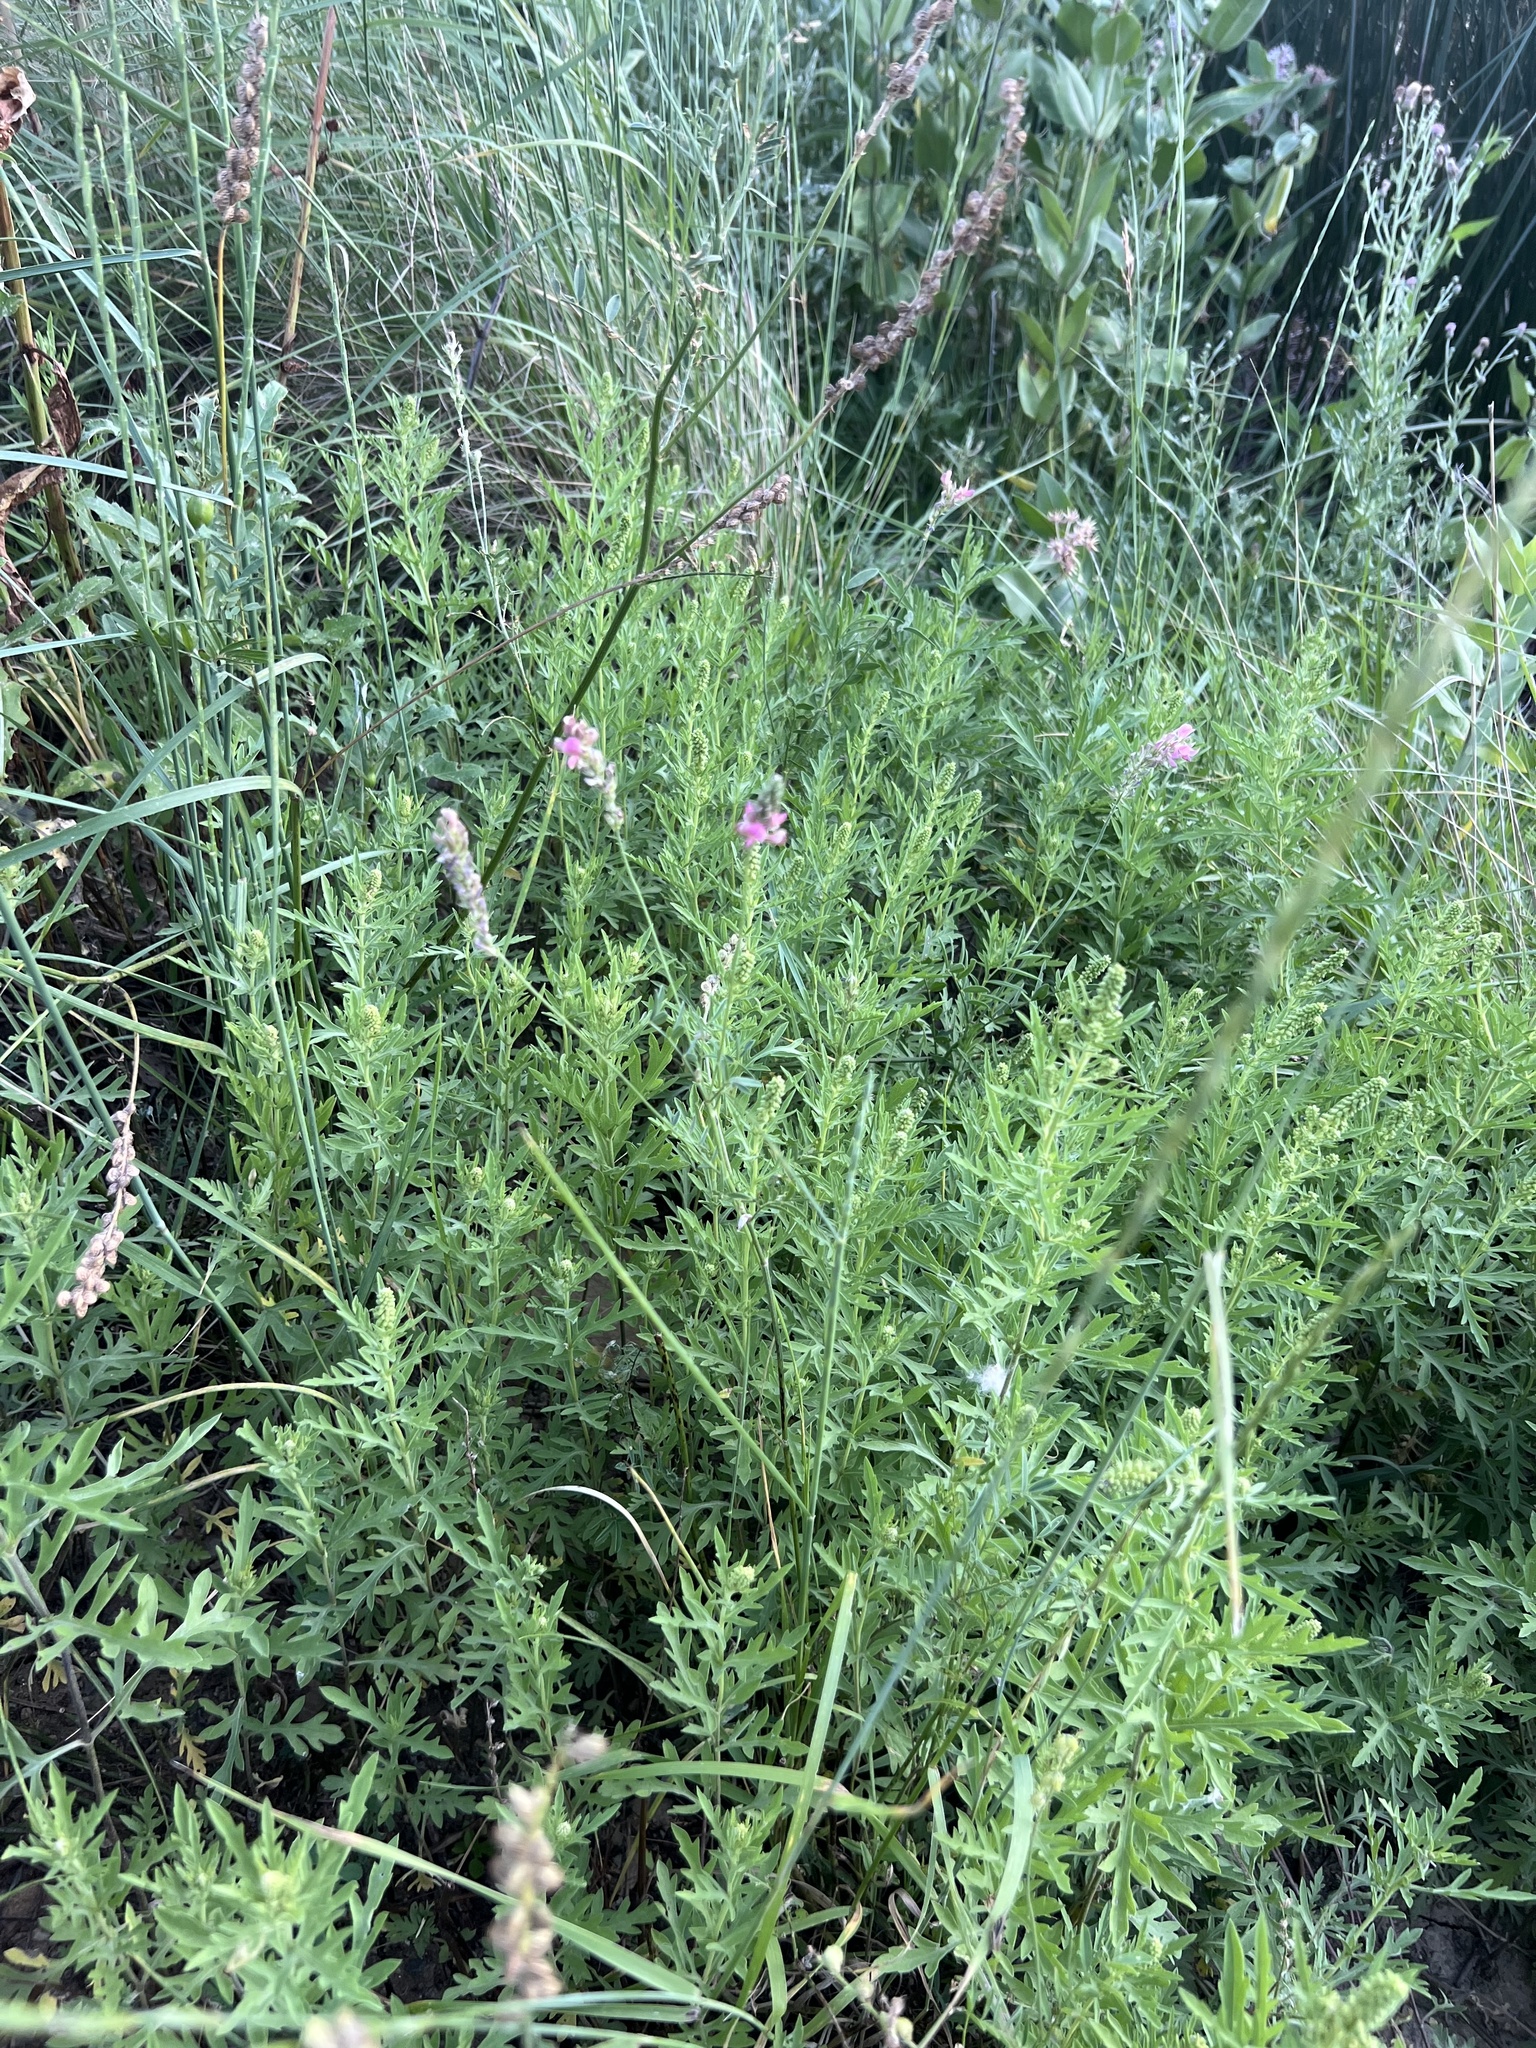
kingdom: Plantae
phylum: Tracheophyta
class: Magnoliopsida
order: Fabales
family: Fabaceae
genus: Onobrychis
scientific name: Onobrychis viciifolia
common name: Sainfoin
